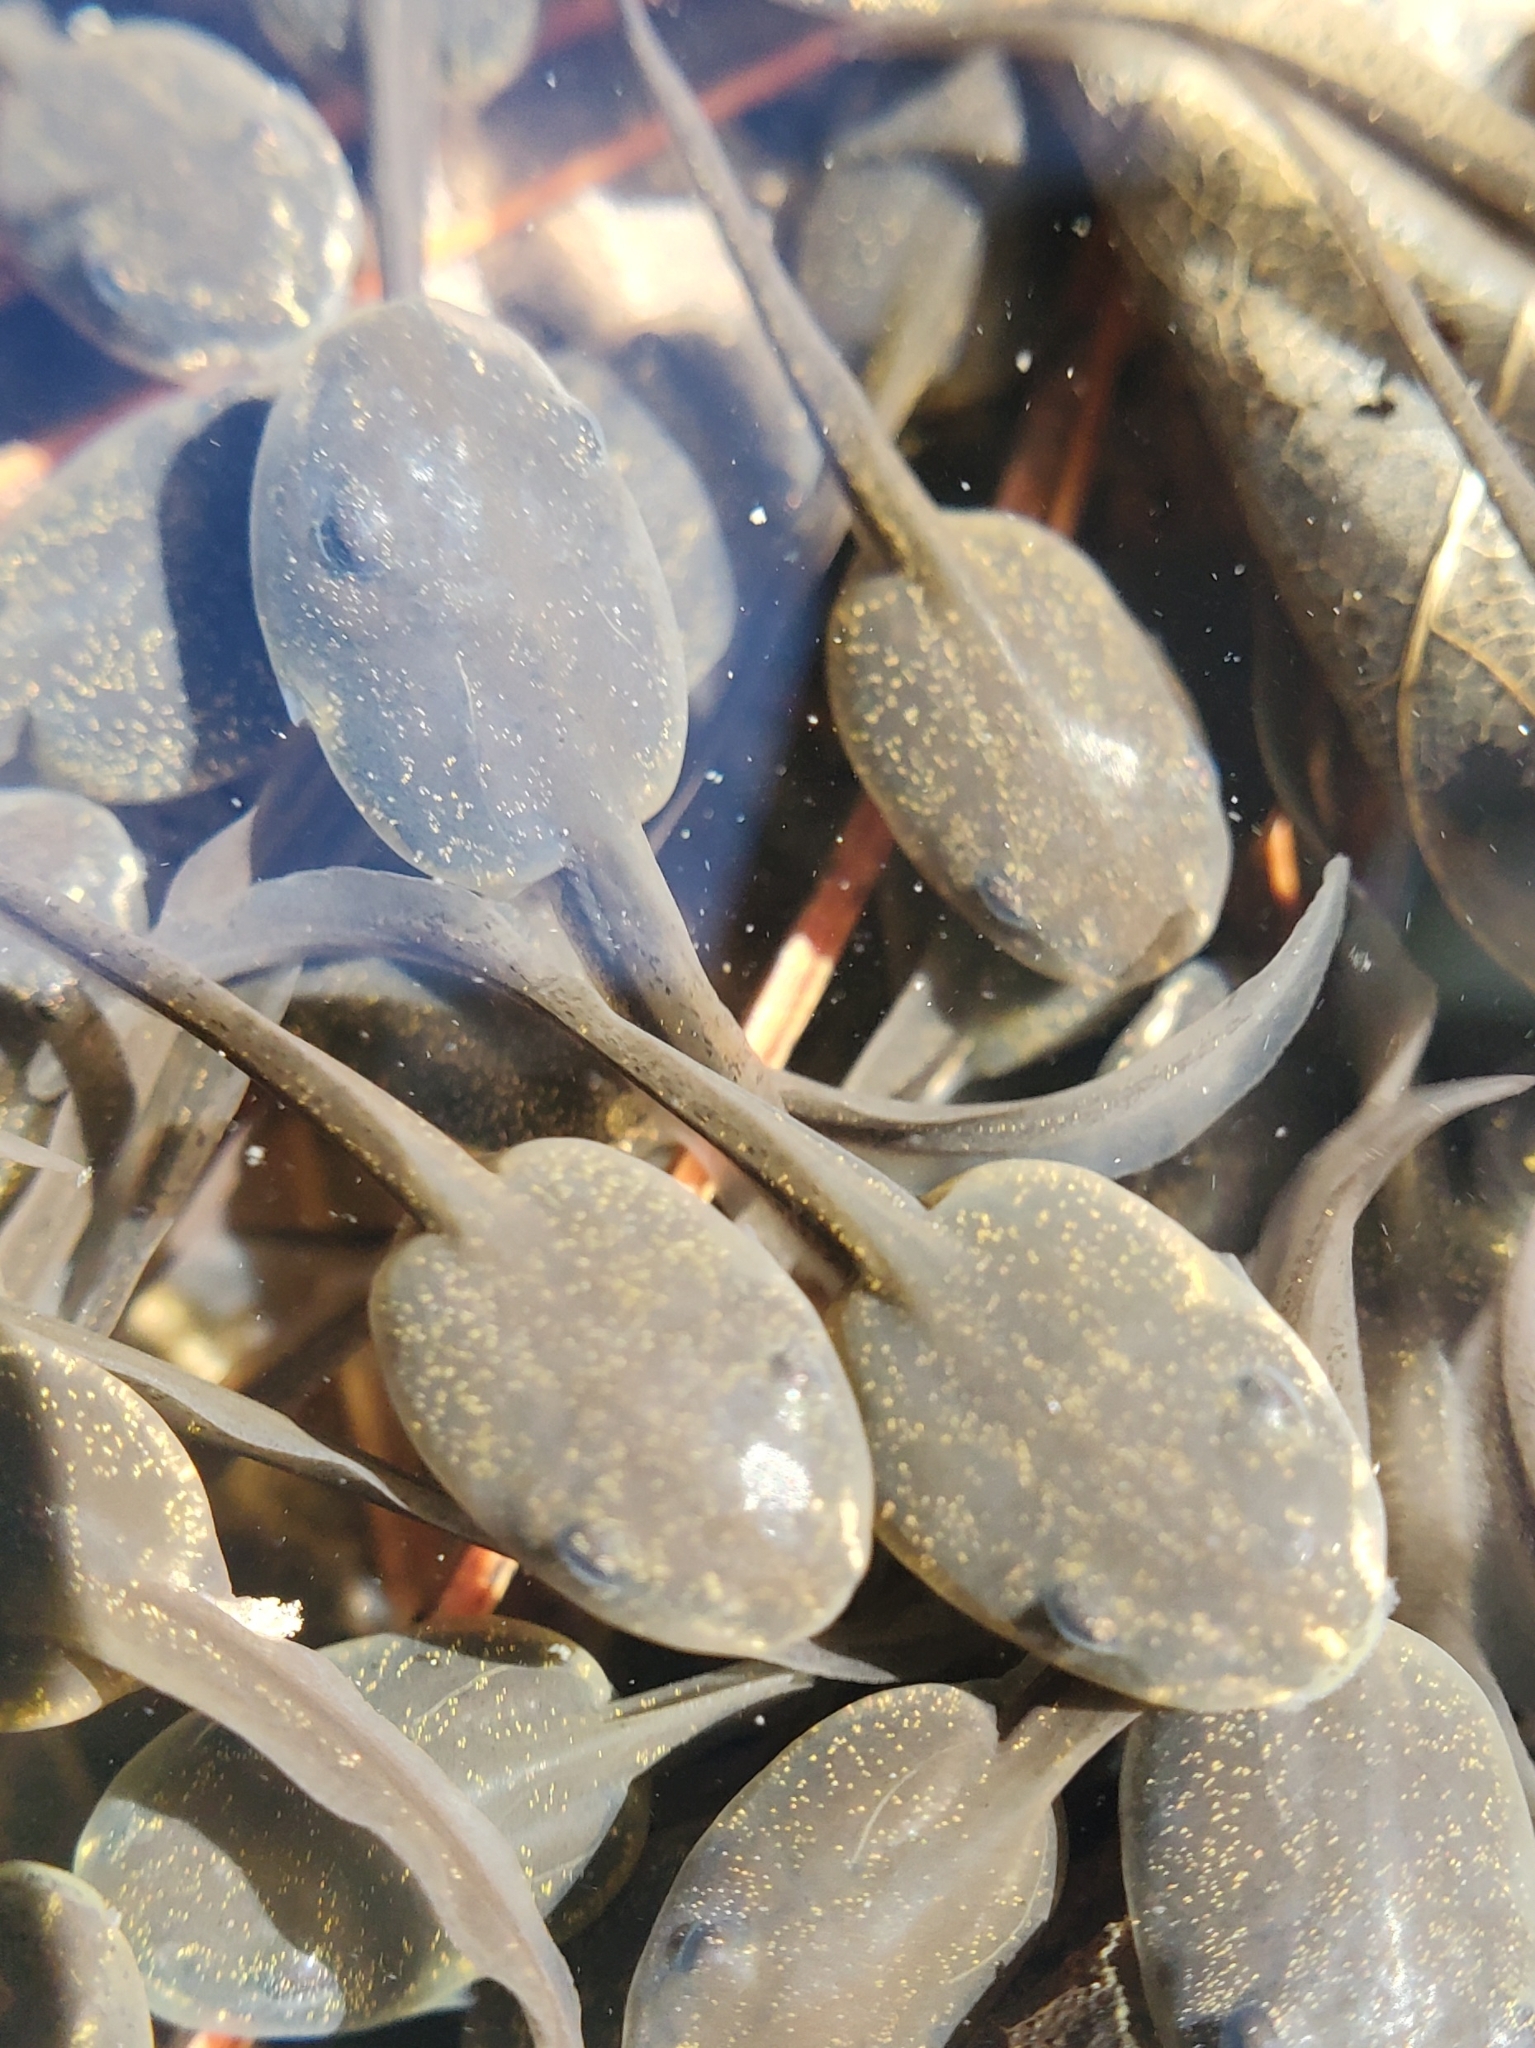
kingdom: Animalia
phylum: Chordata
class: Amphibia
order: Anura
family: Ranidae
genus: Lithobates
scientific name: Lithobates sylvaticus
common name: Wood frog
